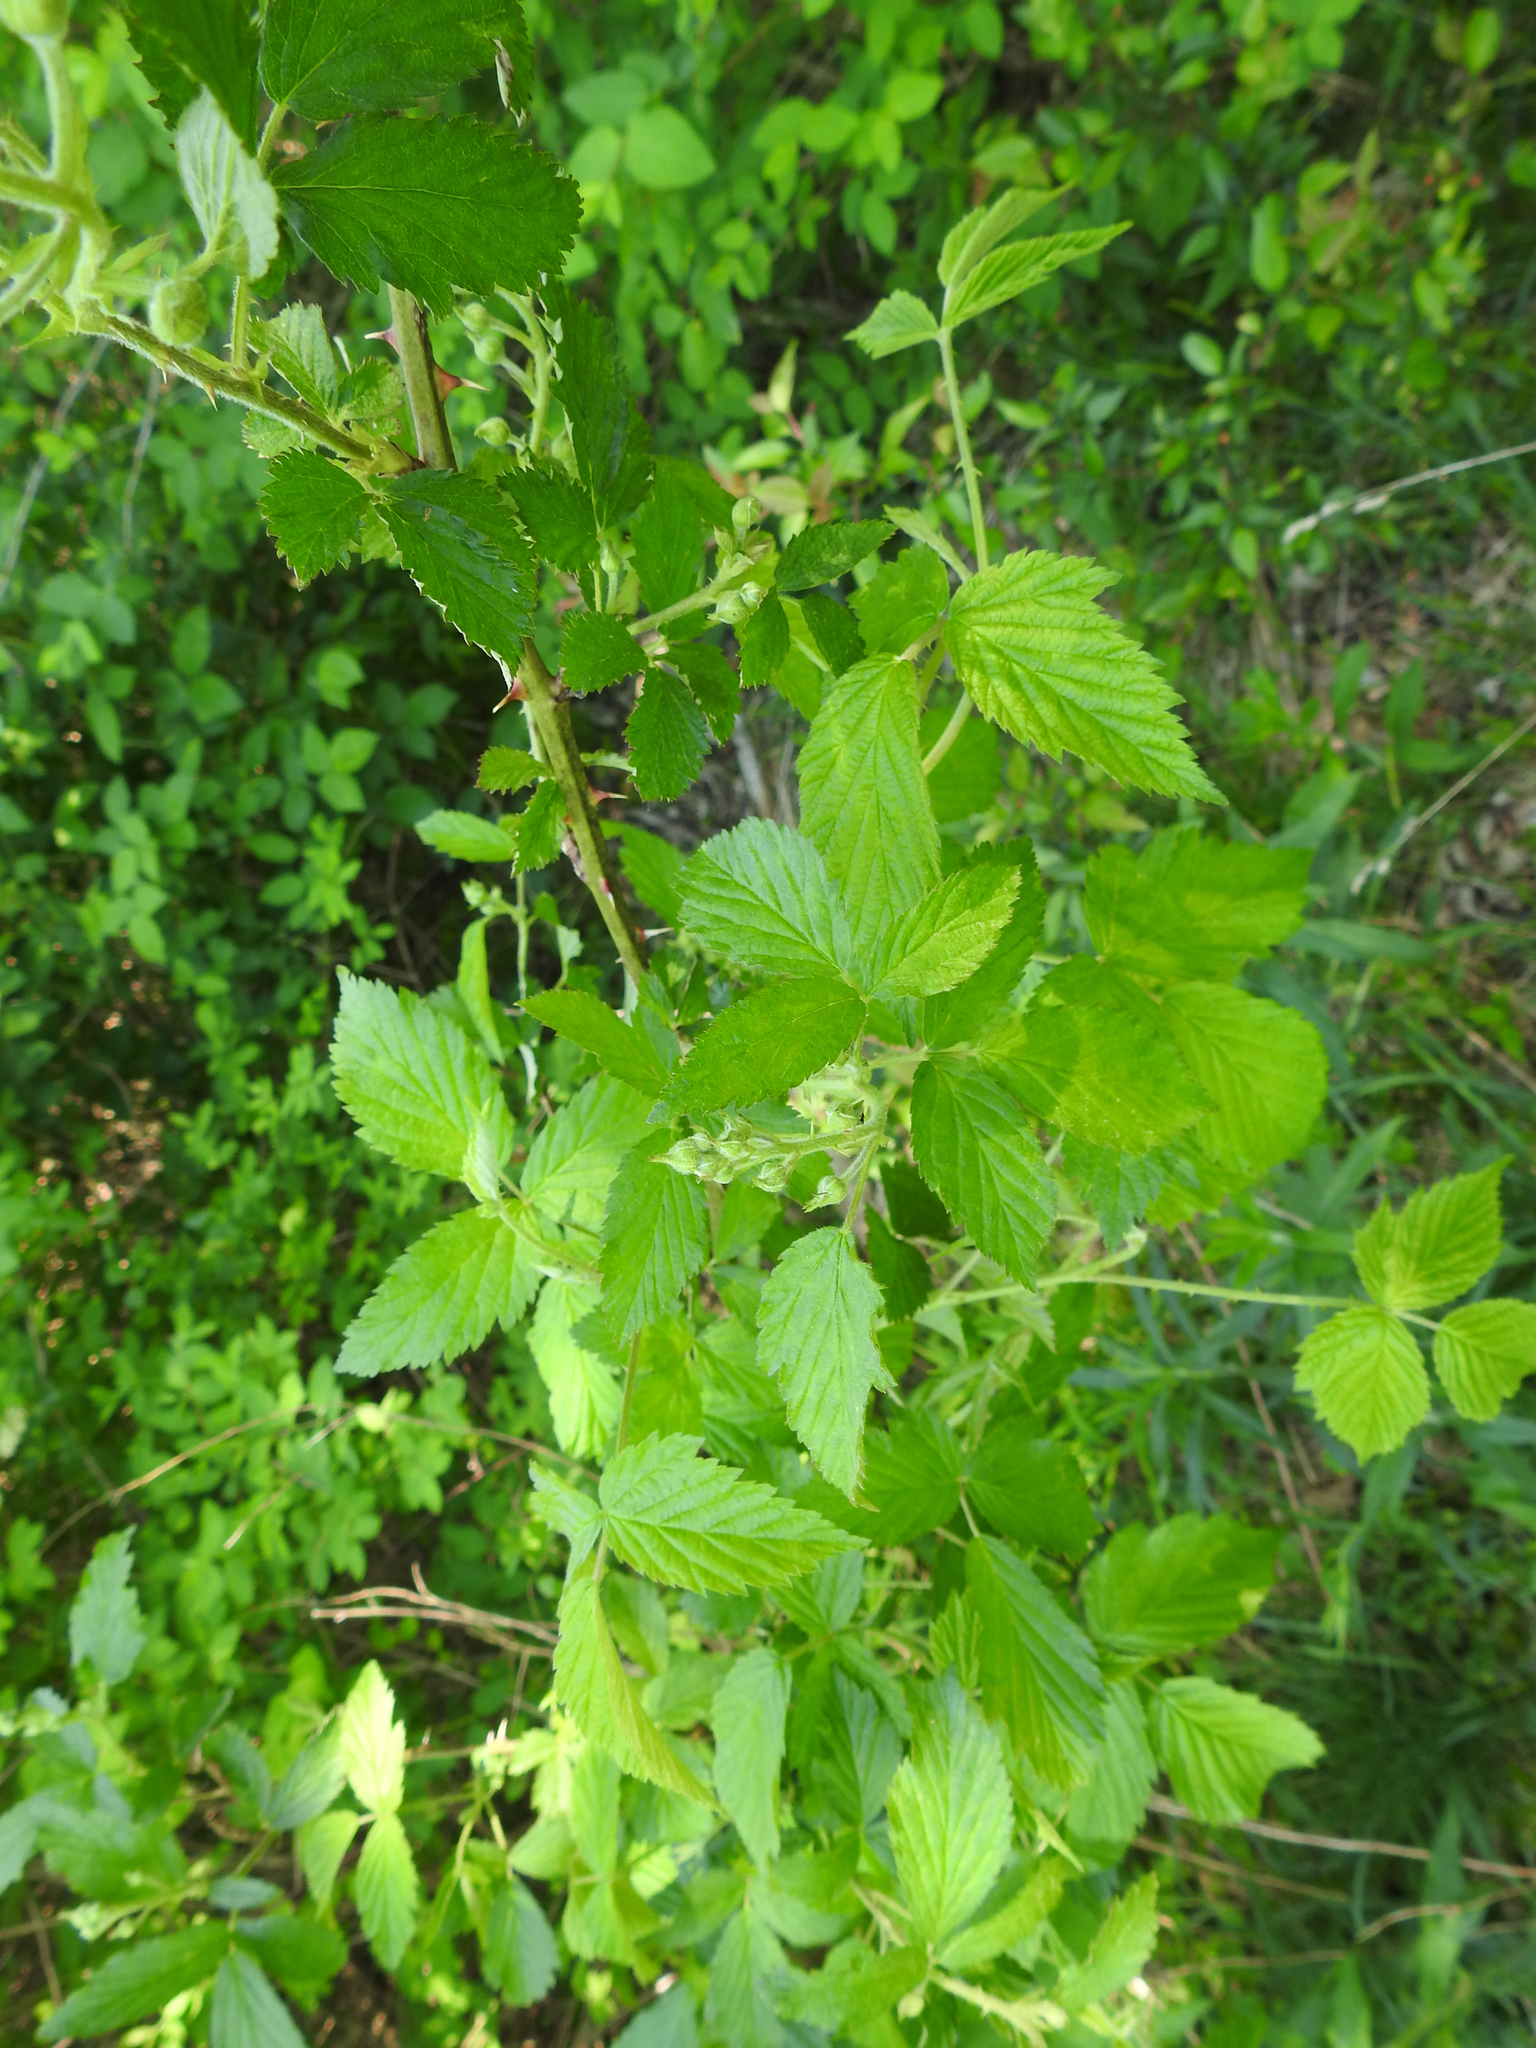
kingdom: Plantae
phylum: Tracheophyta
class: Magnoliopsida
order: Rosales
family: Rosaceae
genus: Rubus
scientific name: Rubus occidentalis
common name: Black raspberry
